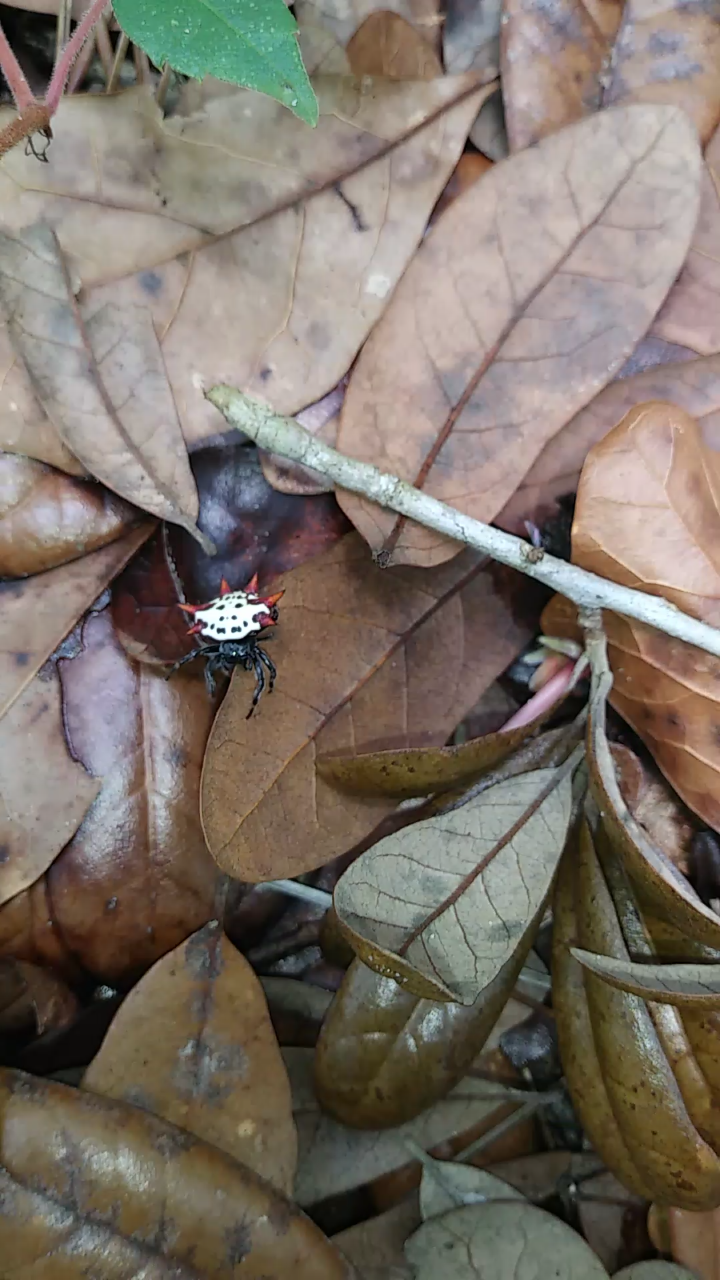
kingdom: Animalia
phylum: Arthropoda
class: Arachnida
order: Araneae
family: Araneidae
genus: Gasteracantha
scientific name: Gasteracantha cancriformis
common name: Orb weavers
